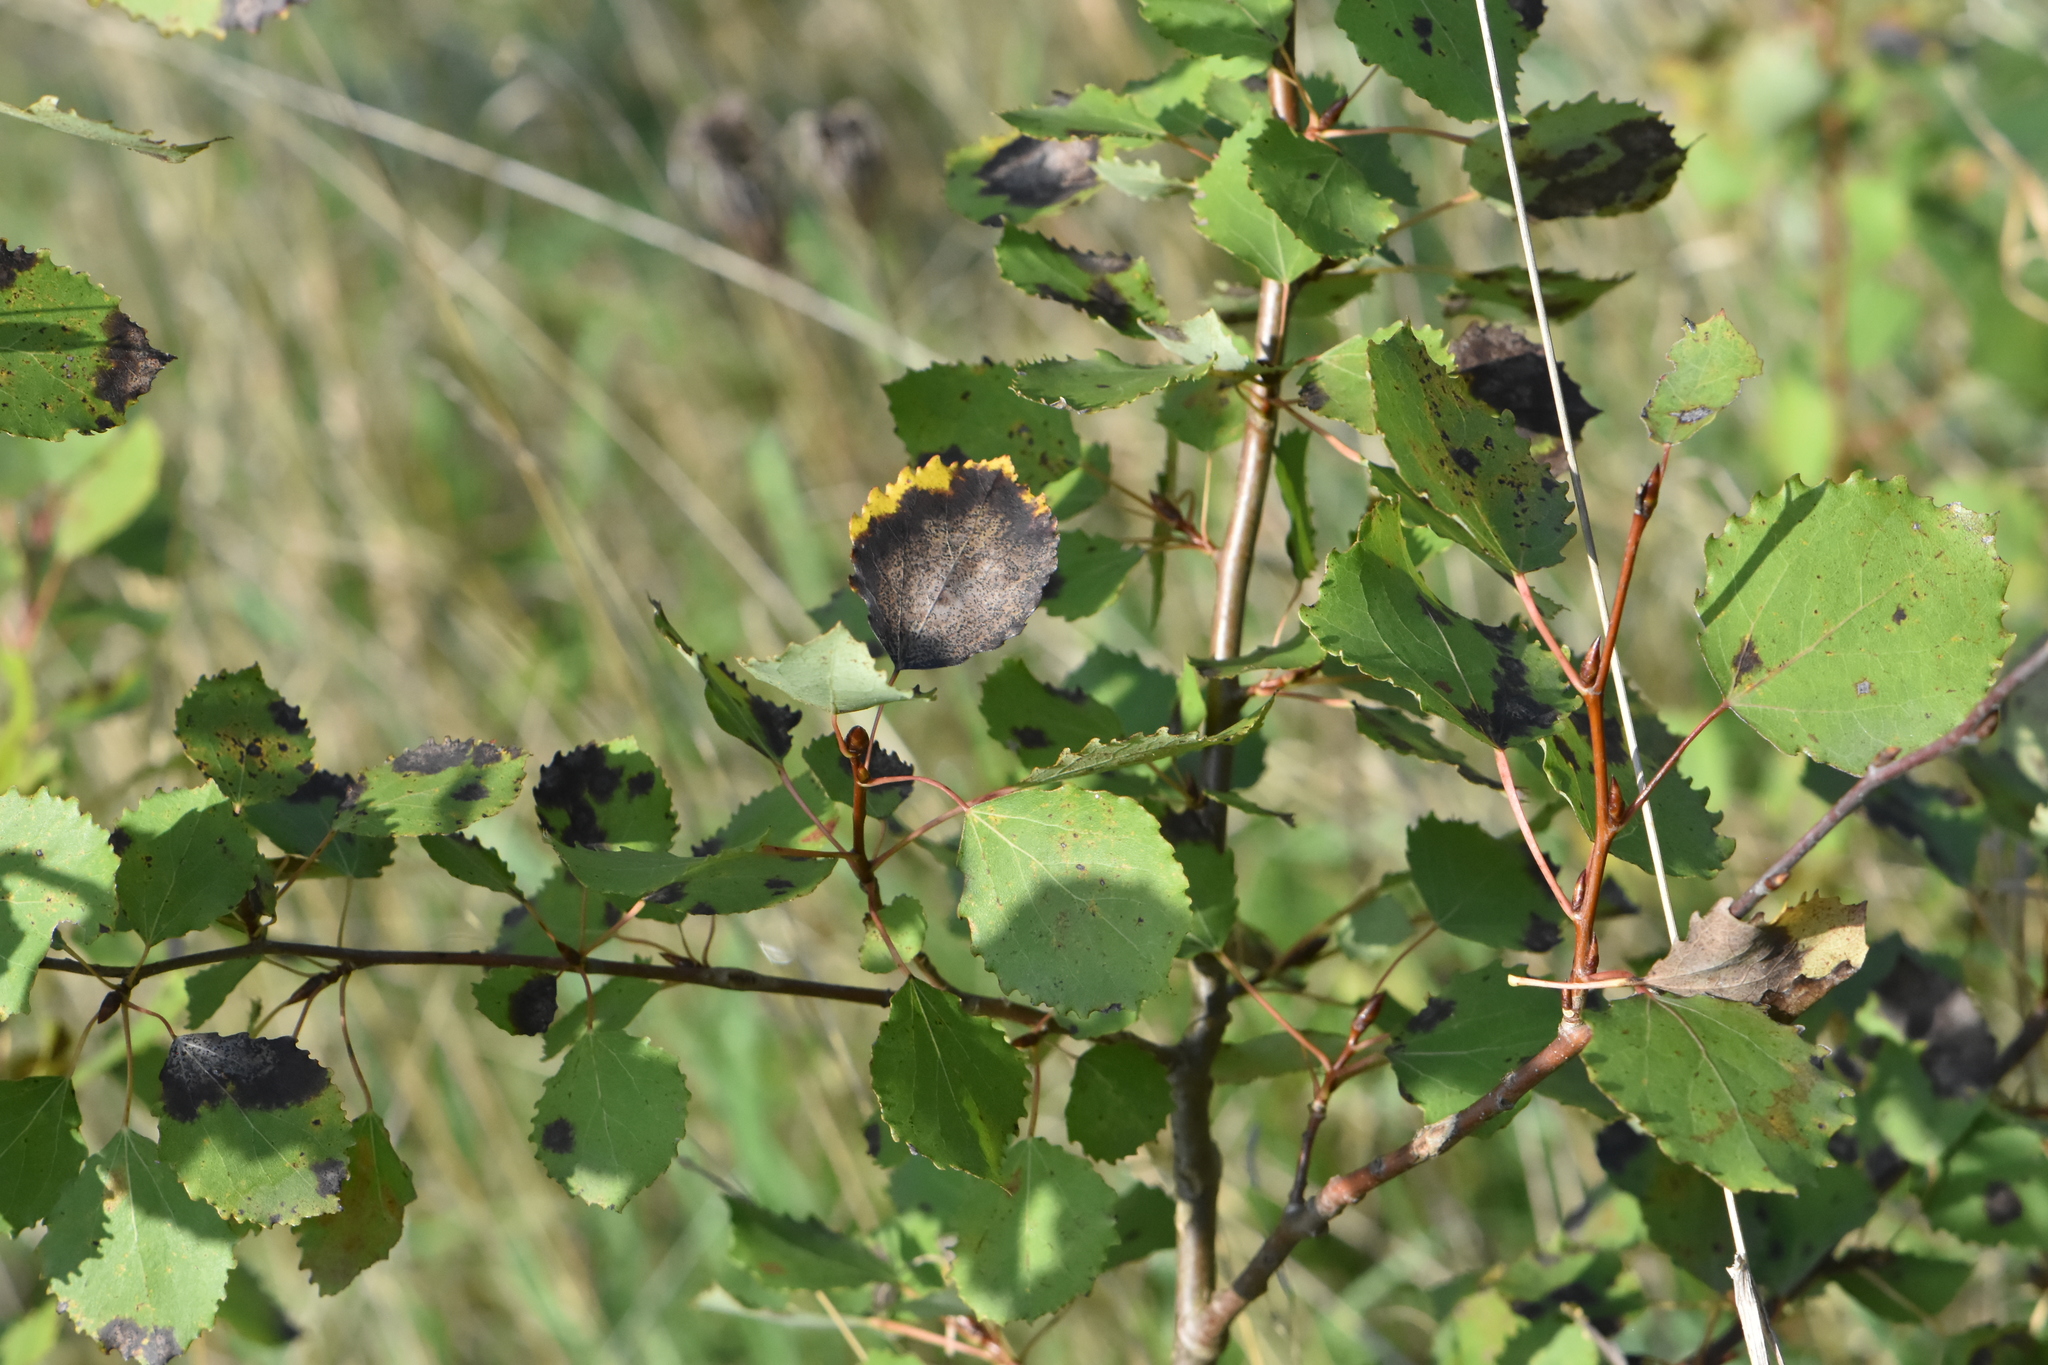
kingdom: Plantae
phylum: Tracheophyta
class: Magnoliopsida
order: Malpighiales
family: Salicaceae
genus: Populus
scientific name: Populus tremula
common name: European aspen
